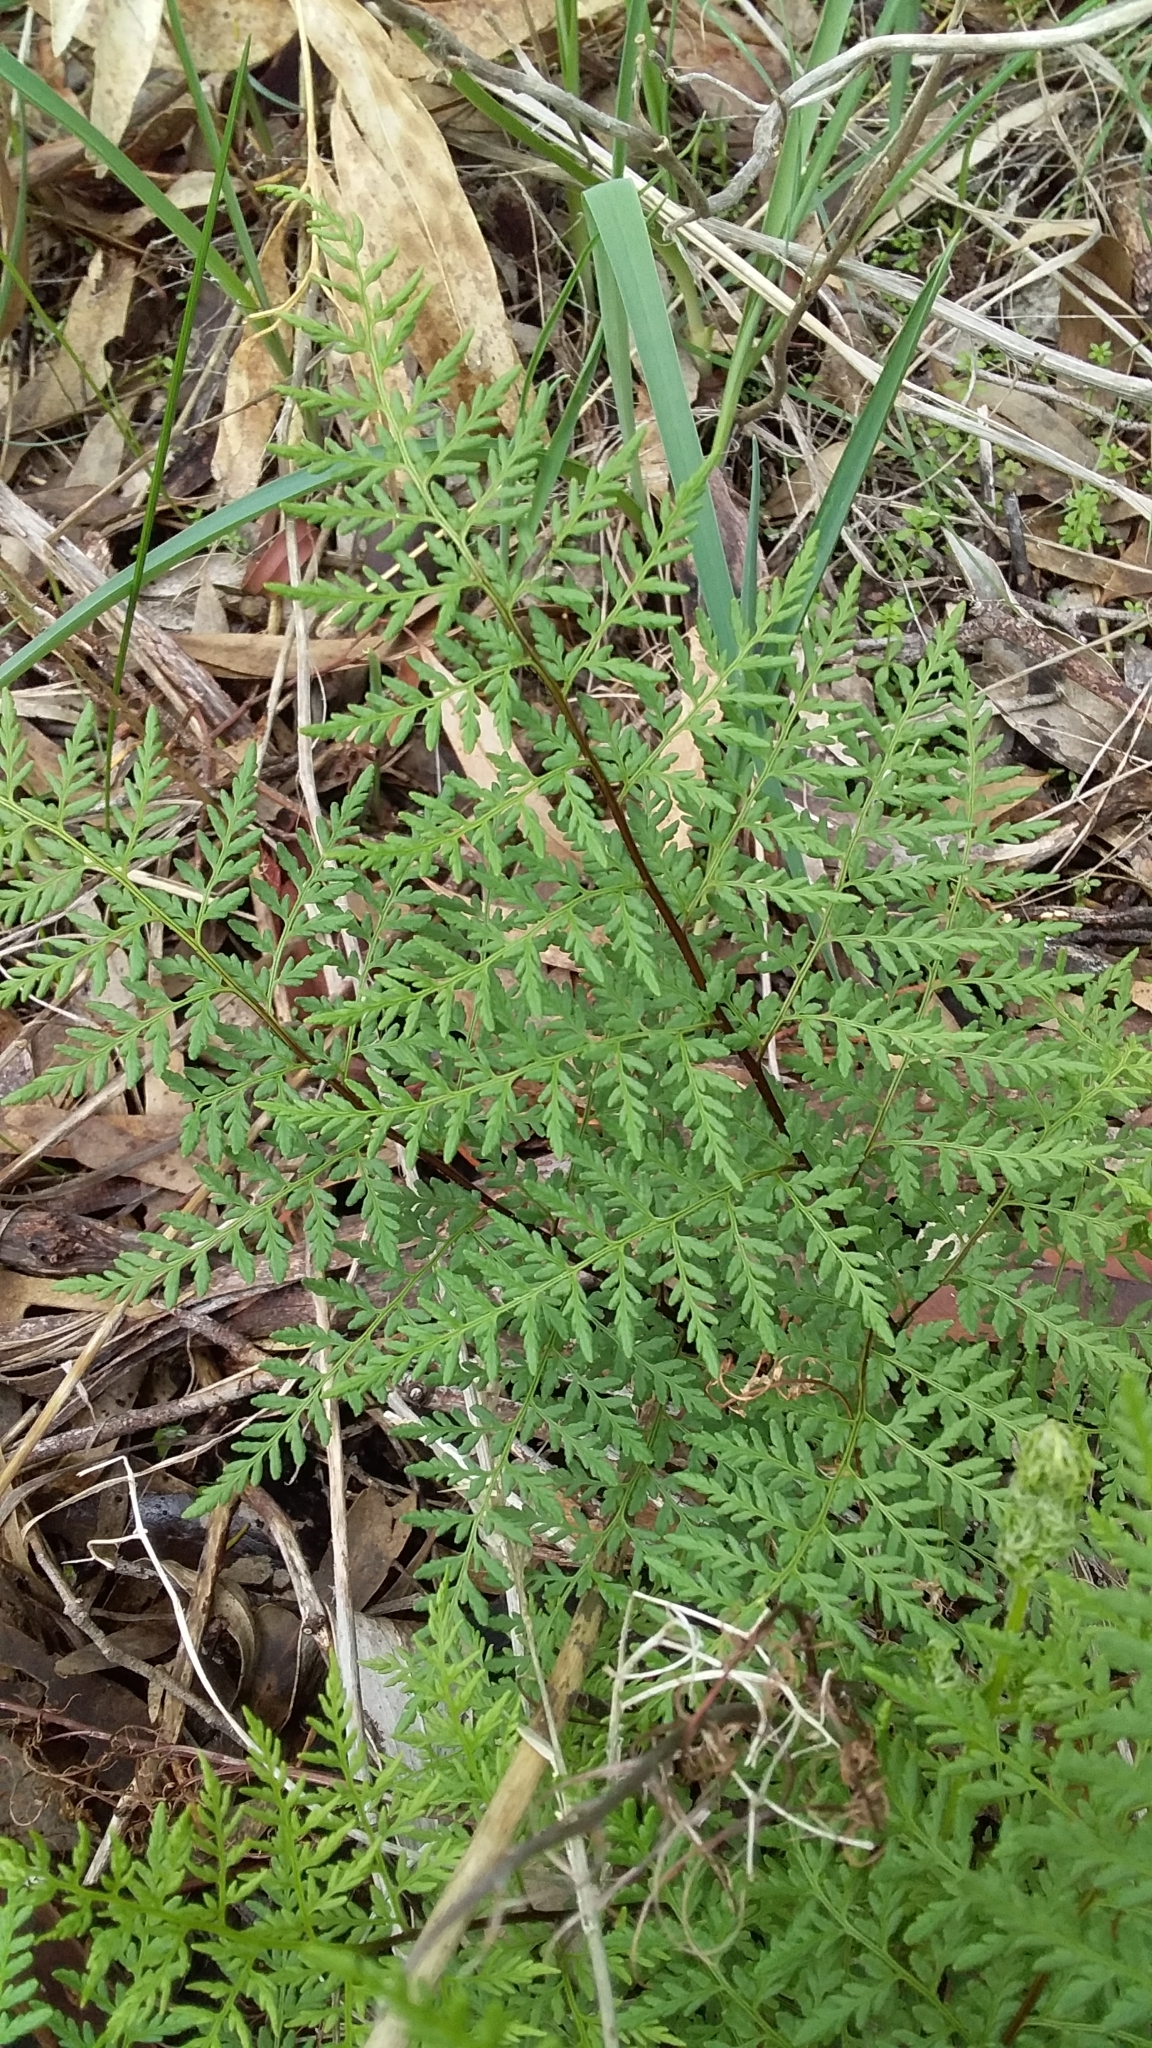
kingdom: Plantae
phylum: Tracheophyta
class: Polypodiopsida
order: Polypodiales
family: Pteridaceae
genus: Cheilanthes
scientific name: Cheilanthes austrotenuifolia
